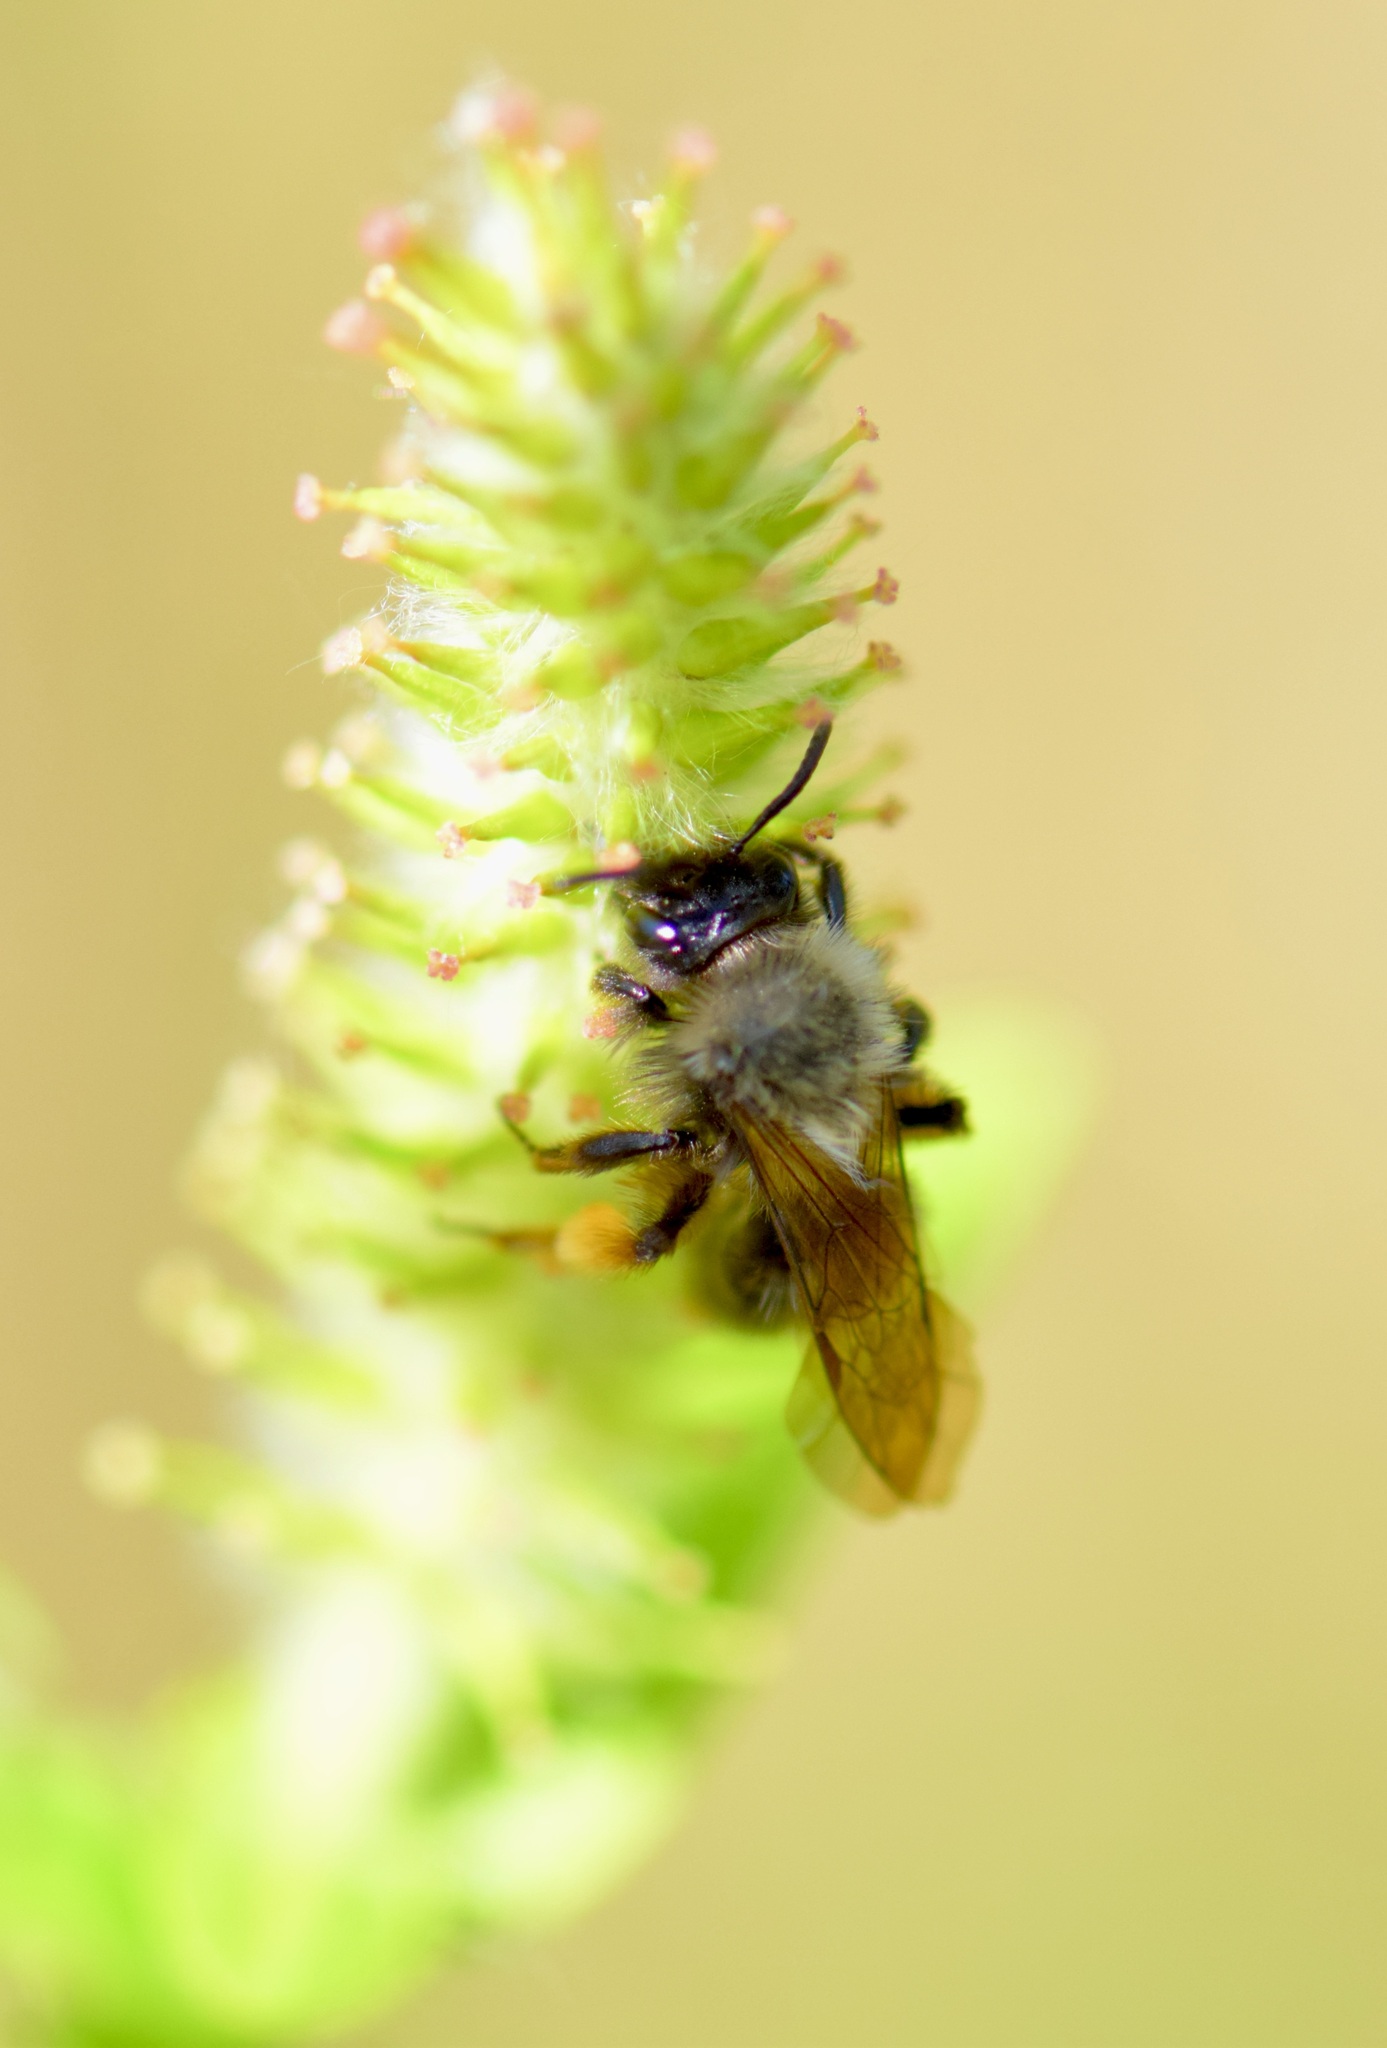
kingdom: Animalia
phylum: Arthropoda
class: Insecta
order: Hymenoptera
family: Andrenidae
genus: Andrena
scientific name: Andrena clarkella
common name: Clarke's mining bee
